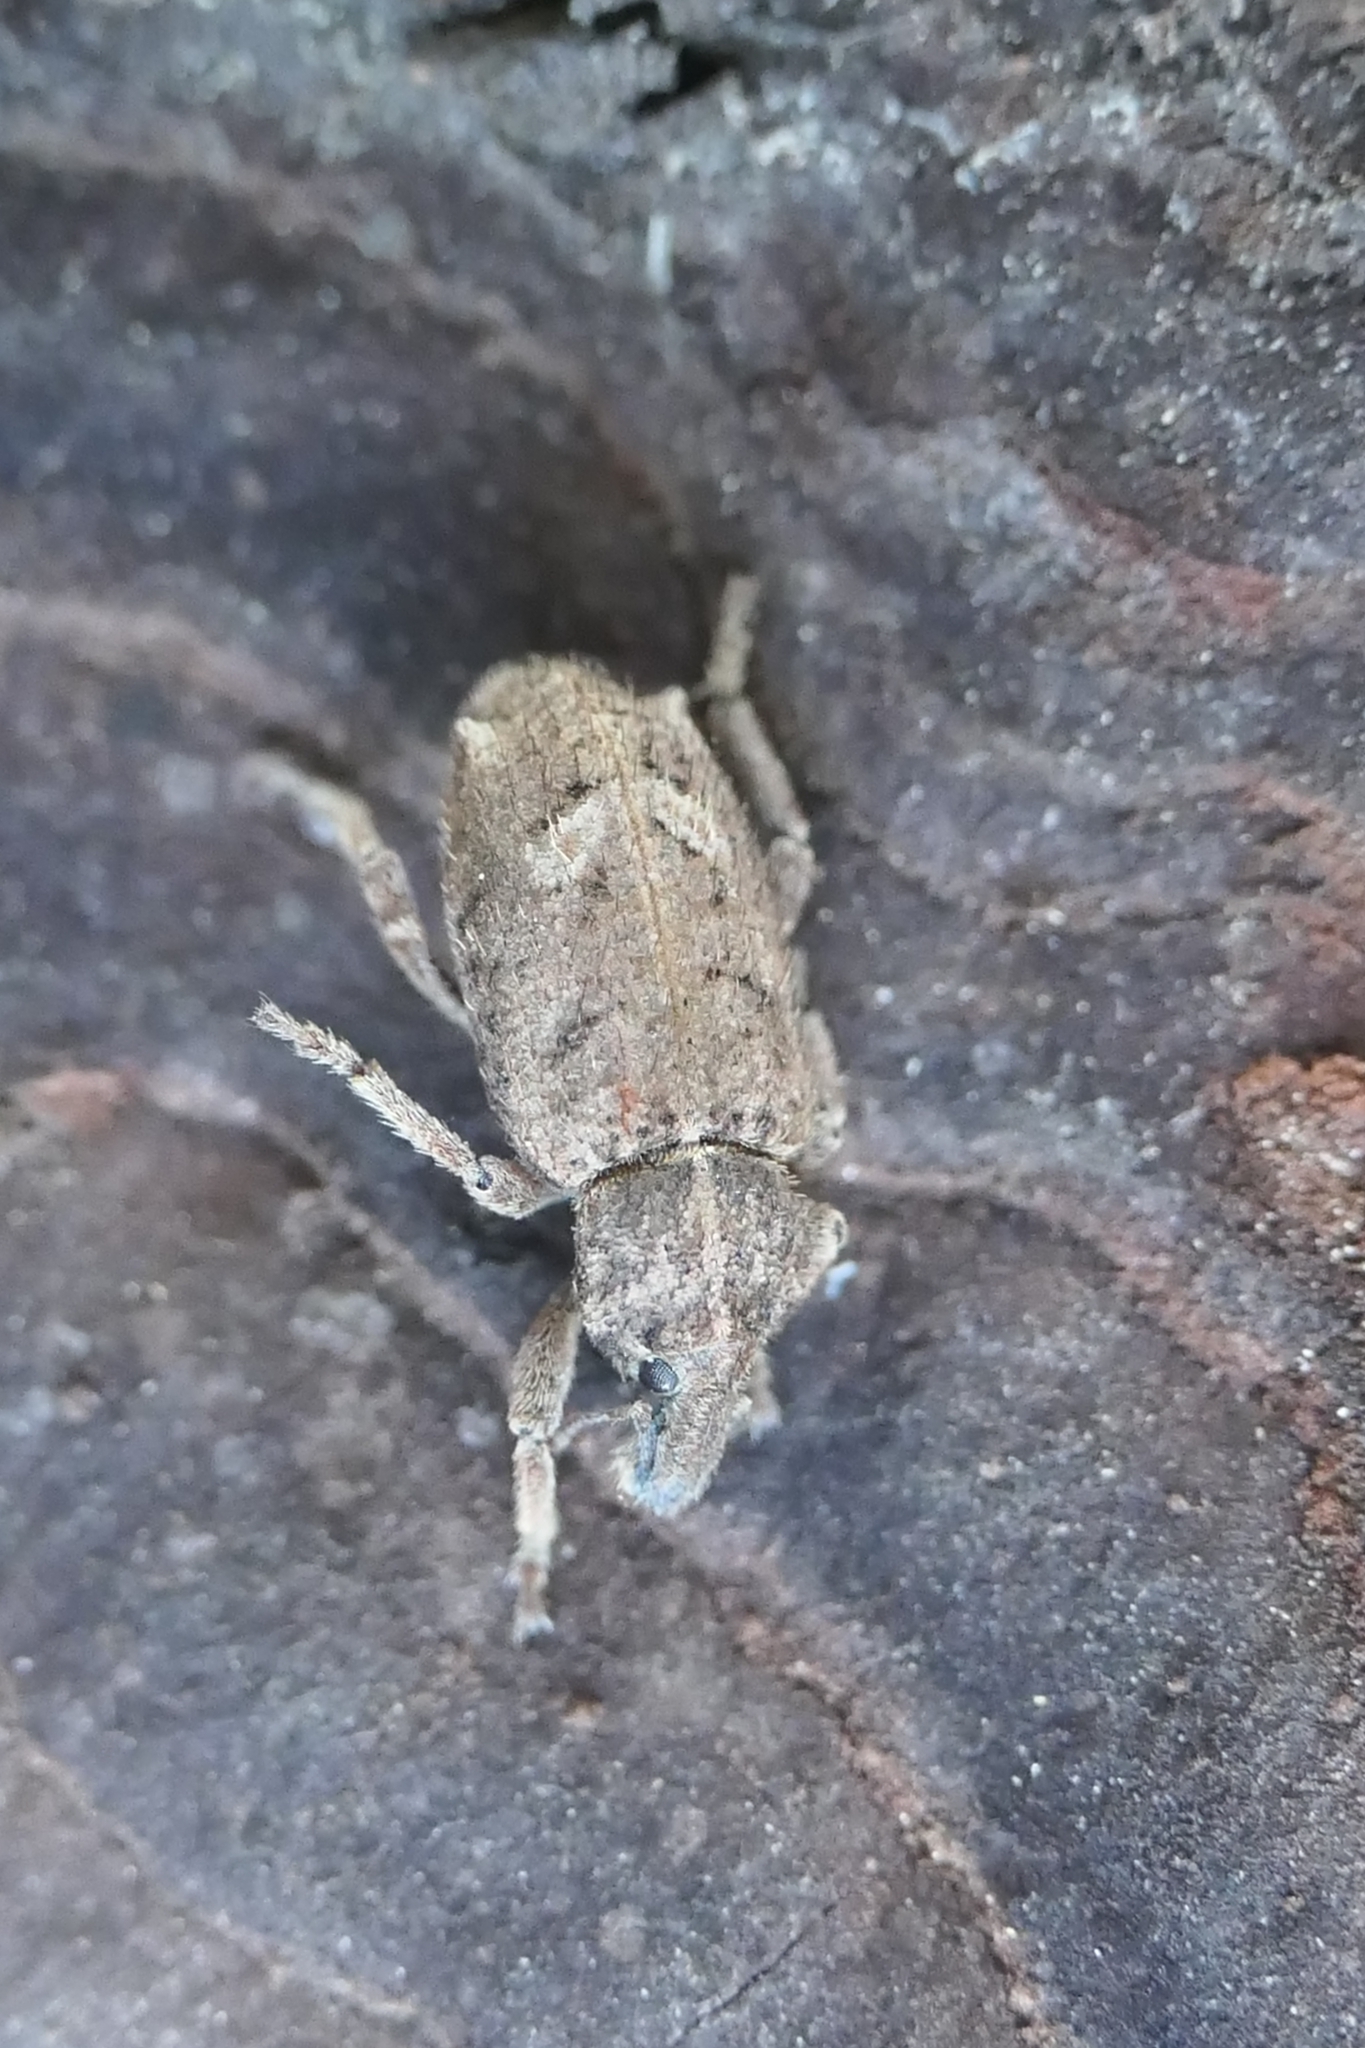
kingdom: Animalia
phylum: Arthropoda
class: Insecta
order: Coleoptera
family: Curculionidae
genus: Listroderes
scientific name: Listroderes costirostris
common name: Weevil
